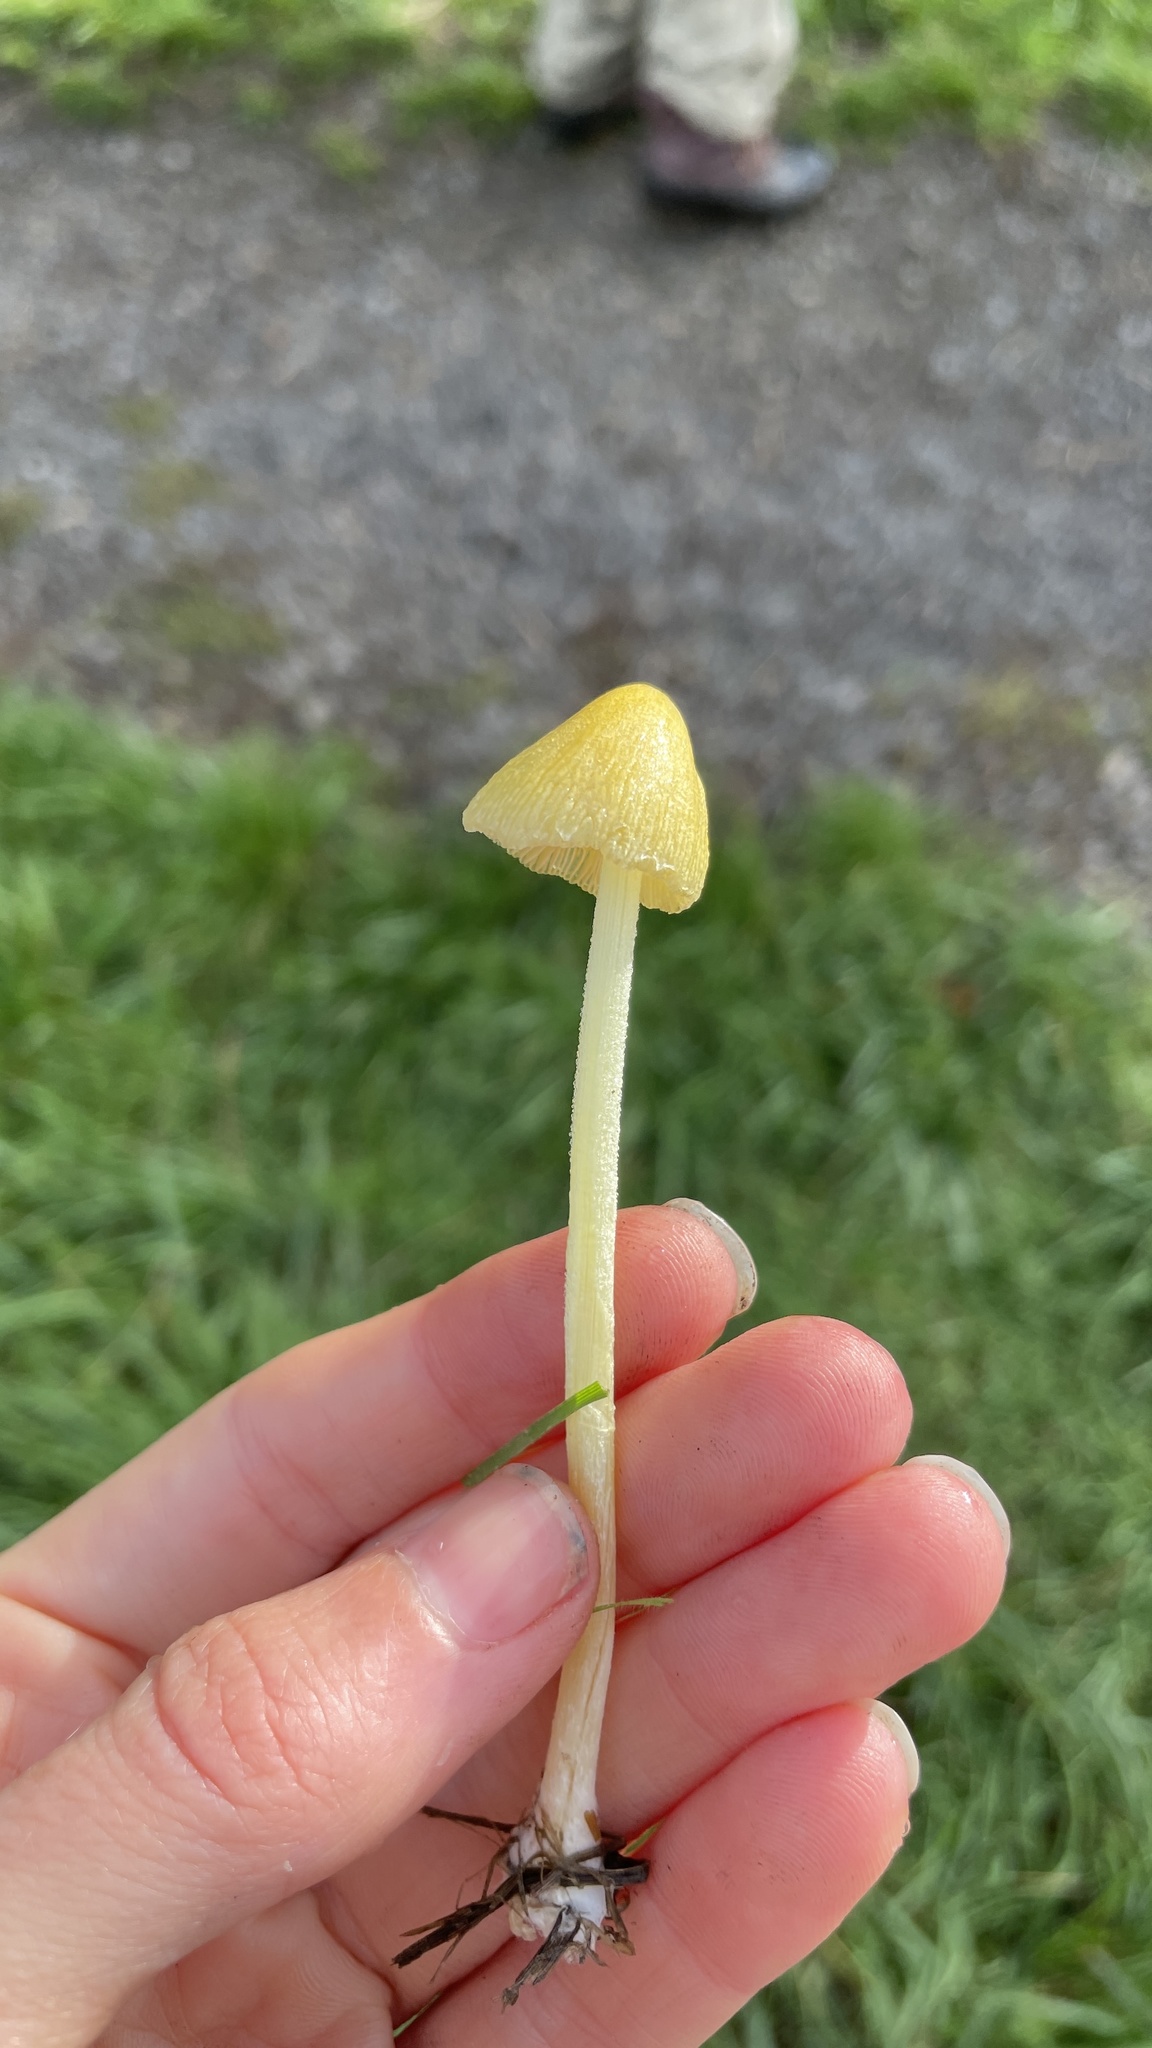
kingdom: Fungi
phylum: Basidiomycota
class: Agaricomycetes
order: Agaricales
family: Bolbitiaceae
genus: Bolbitius
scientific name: Bolbitius titubans
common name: Yellow fieldcap
